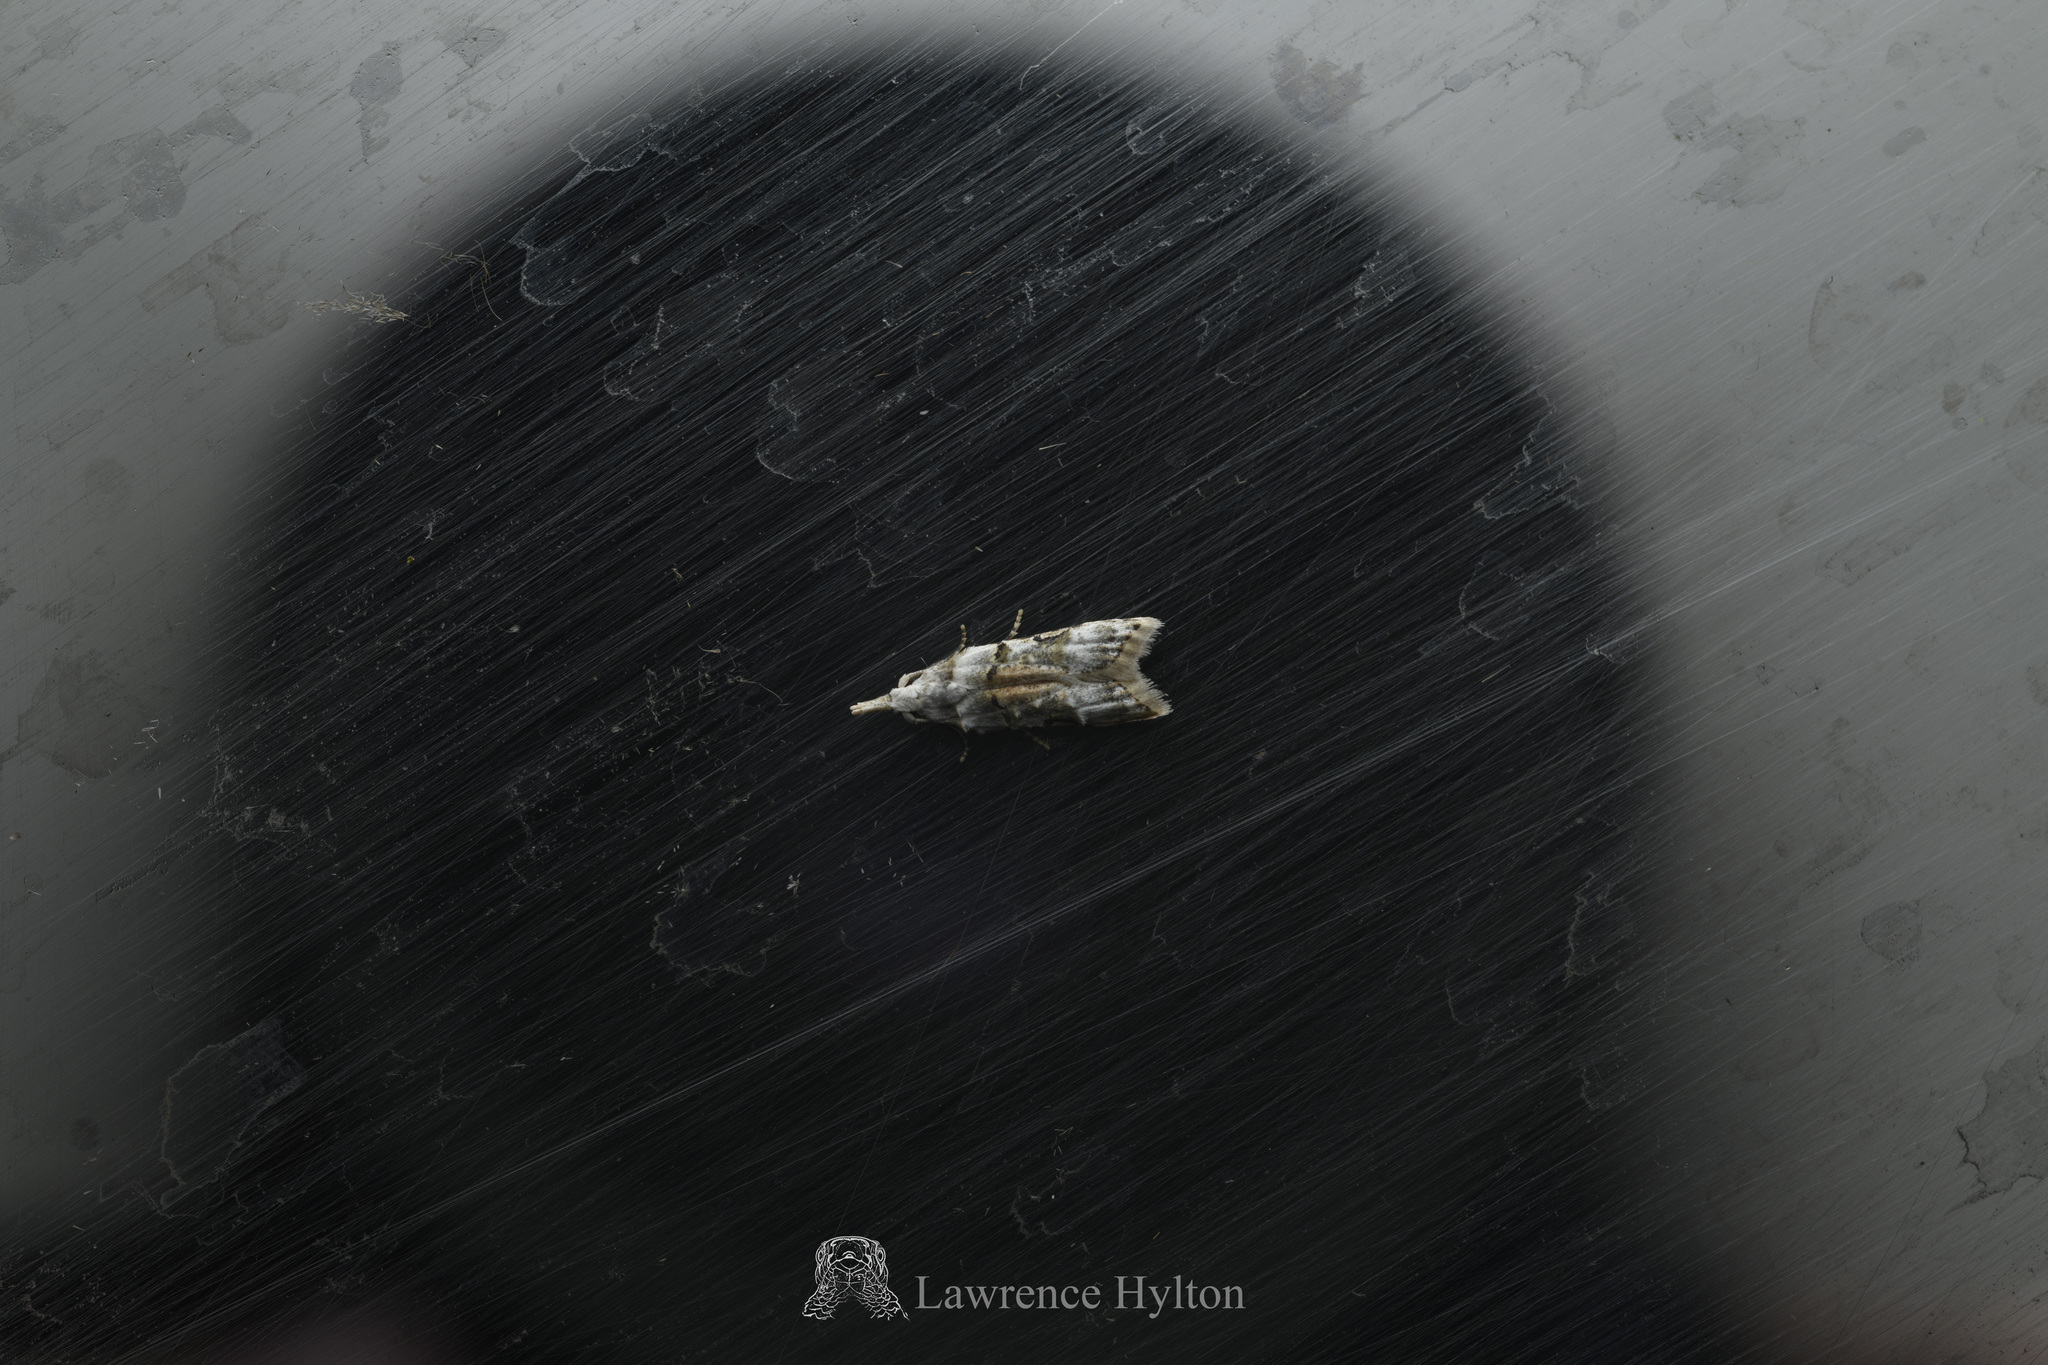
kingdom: Animalia
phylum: Arthropoda
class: Insecta
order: Lepidoptera
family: Carposinidae
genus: Metacosmesis
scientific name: Metacosmesis laxeuta
